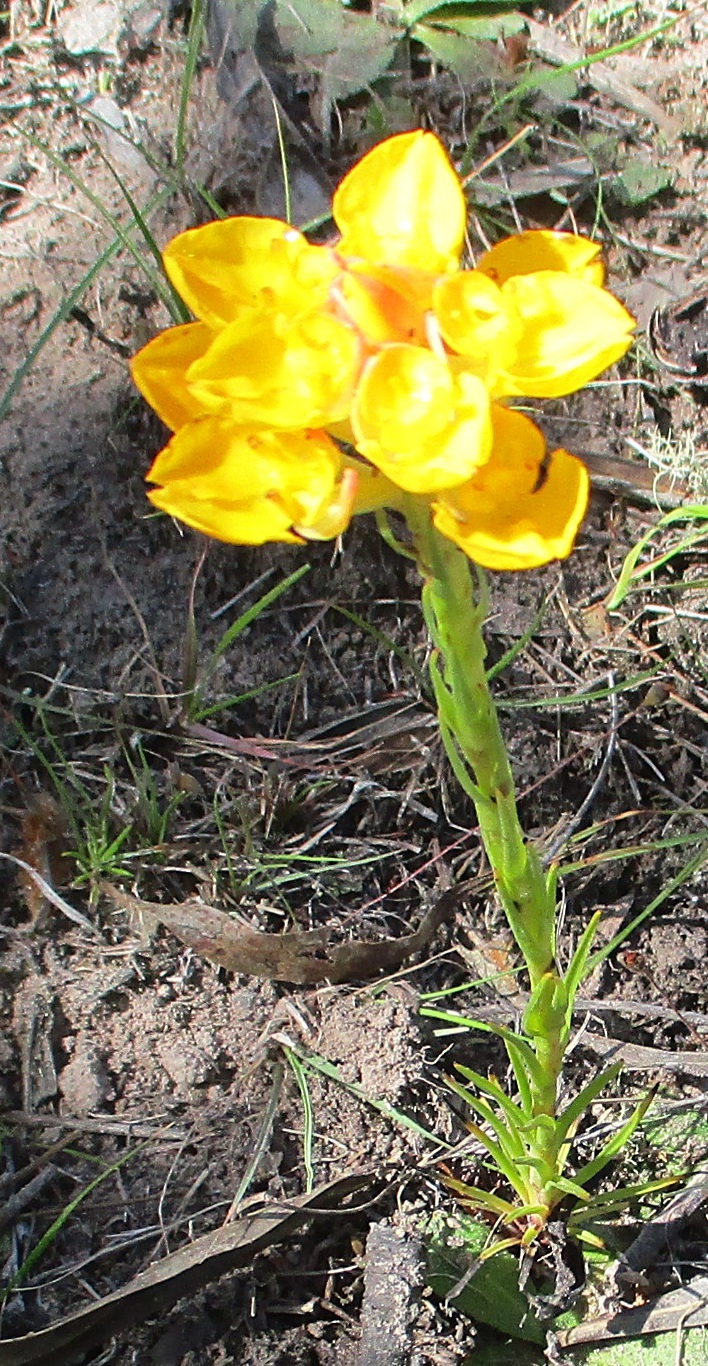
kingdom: Plantae
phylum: Tracheophyta
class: Liliopsida
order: Asparagales
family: Orchidaceae
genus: Ceratandra
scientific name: Ceratandra grandiflora
